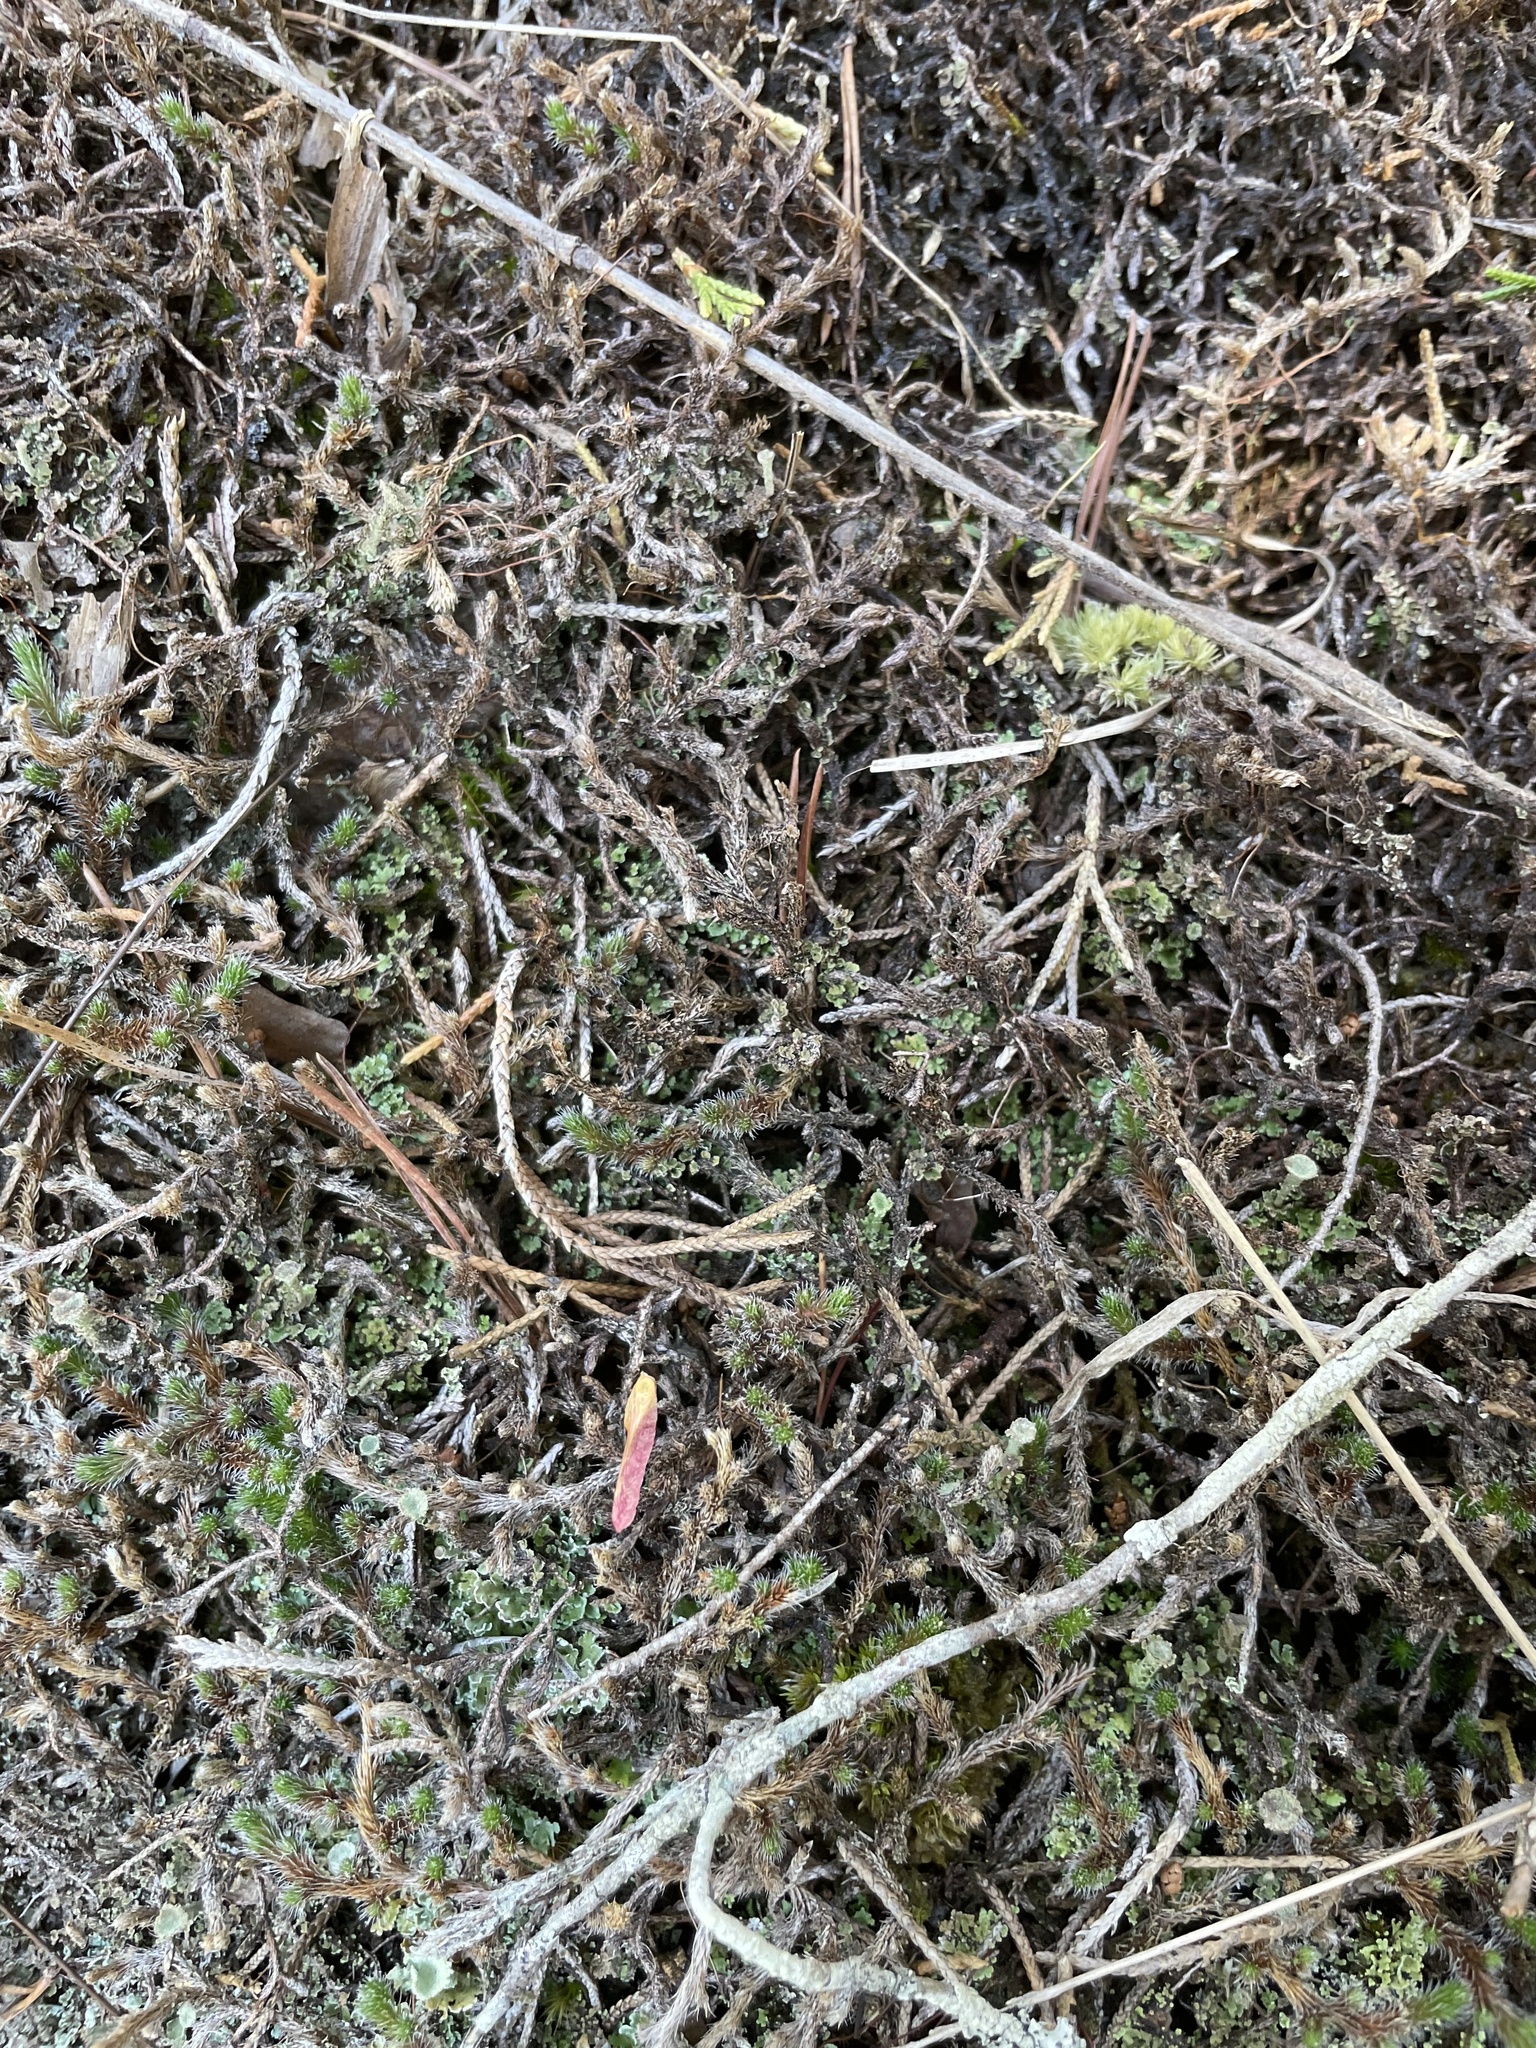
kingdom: Plantae
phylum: Tracheophyta
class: Lycopodiopsida
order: Selaginellales
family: Selaginellaceae
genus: Selaginella
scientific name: Selaginella rupestris
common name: Dwarf spikemoss
